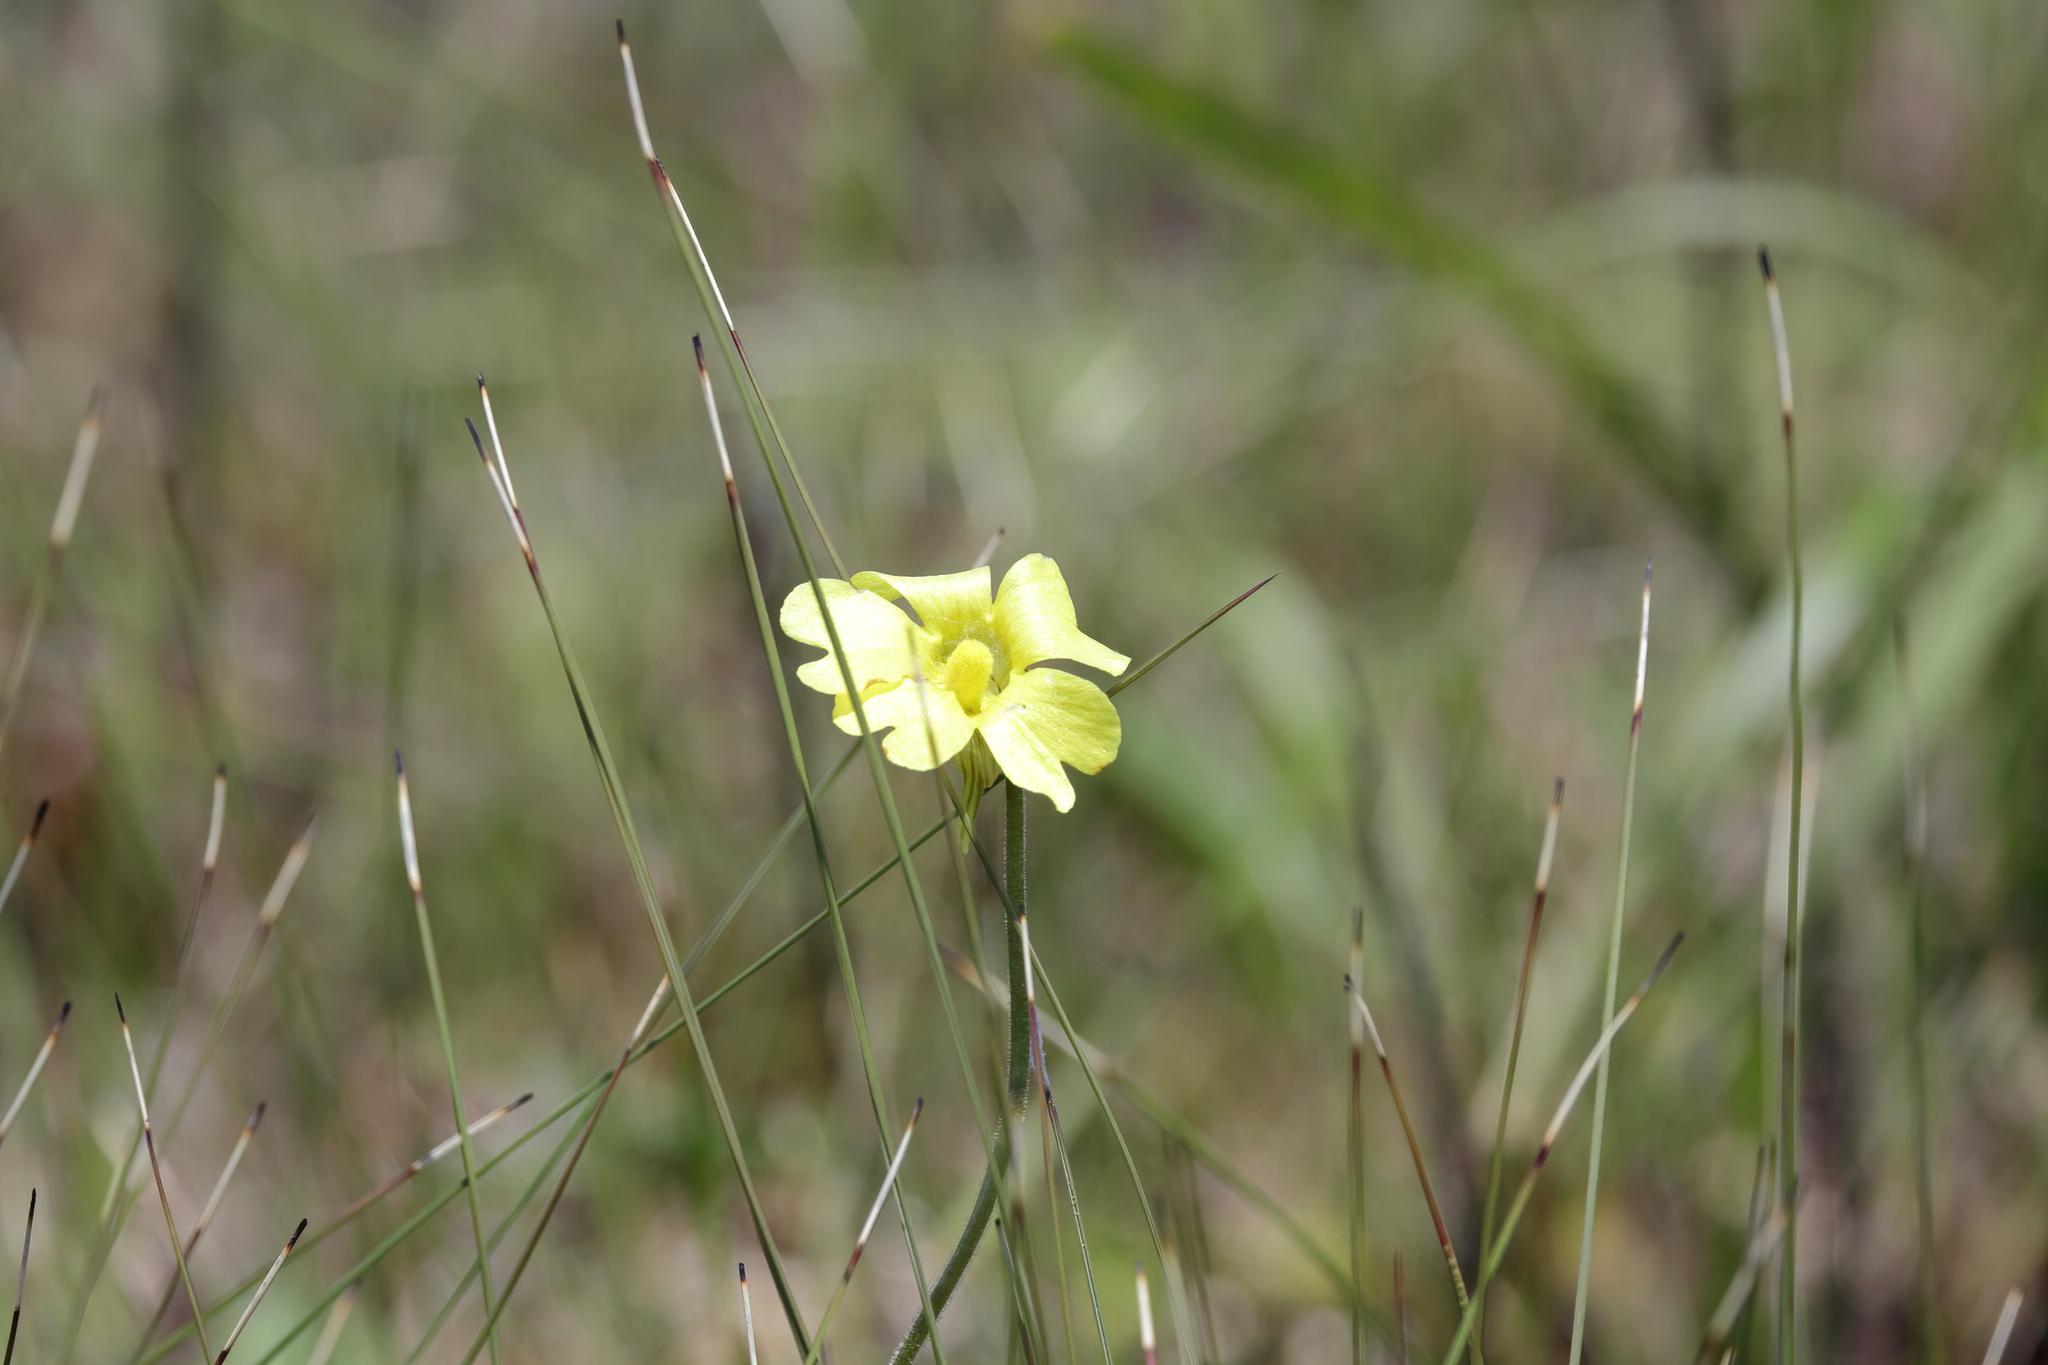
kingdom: Plantae
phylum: Tracheophyta
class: Magnoliopsida
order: Lamiales
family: Lentibulariaceae
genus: Pinguicula
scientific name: Pinguicula lutea
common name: Yellow butterwort
